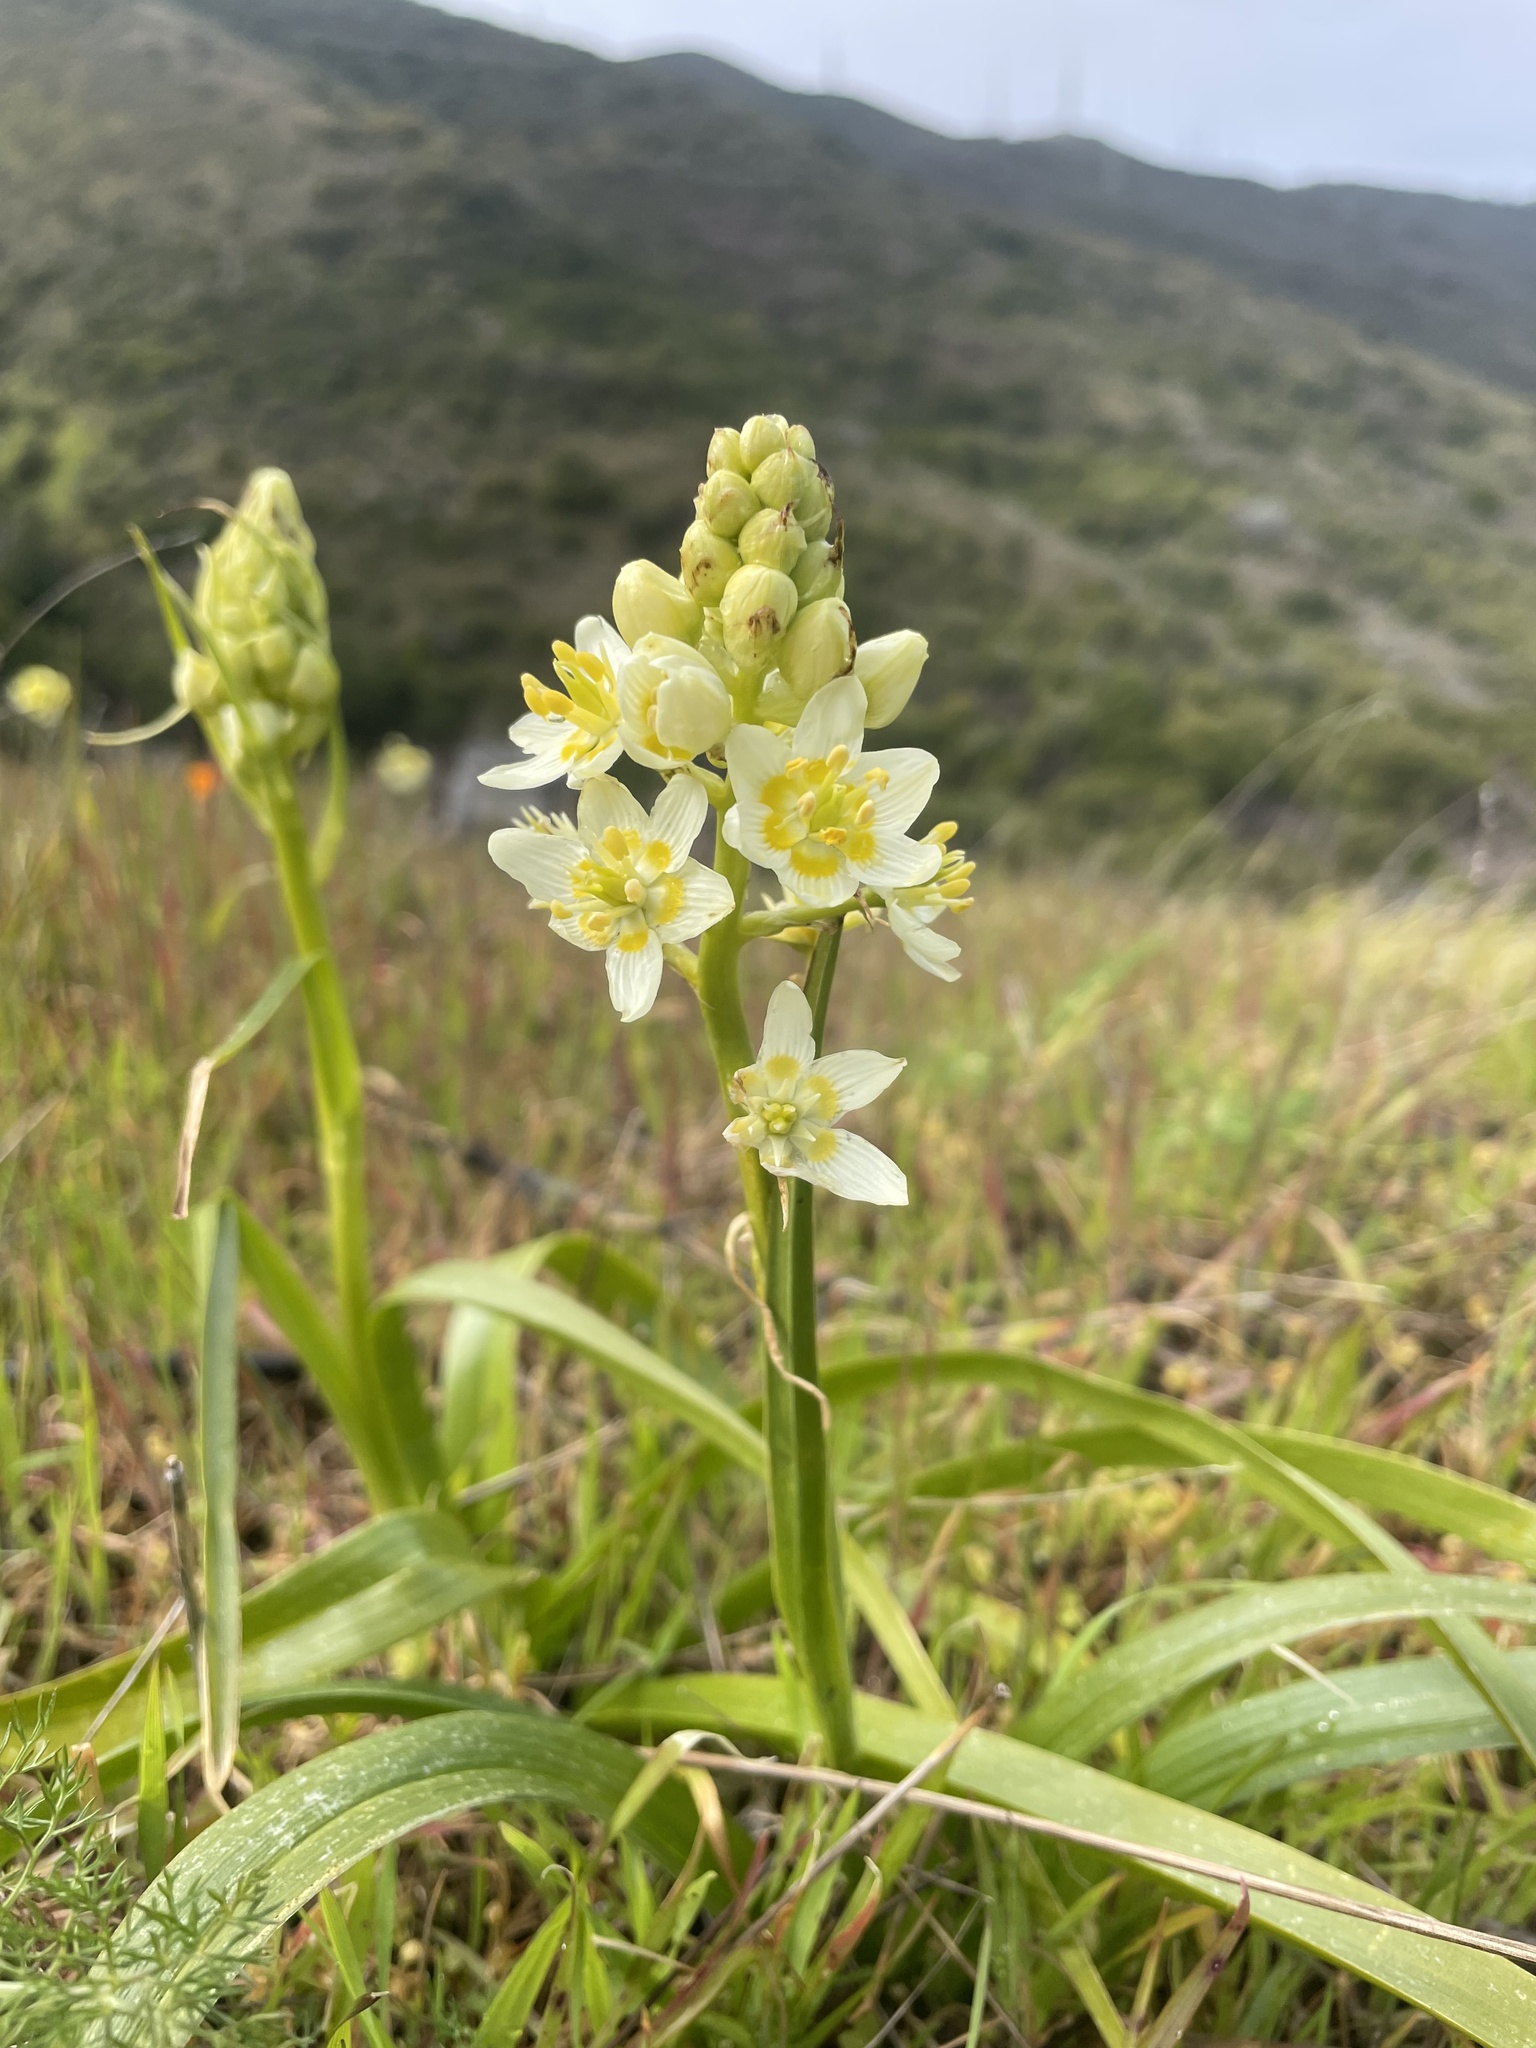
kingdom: Plantae
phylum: Tracheophyta
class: Liliopsida
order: Liliales
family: Melanthiaceae
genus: Toxicoscordion
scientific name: Toxicoscordion fremontii
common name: Fremont's death camas
